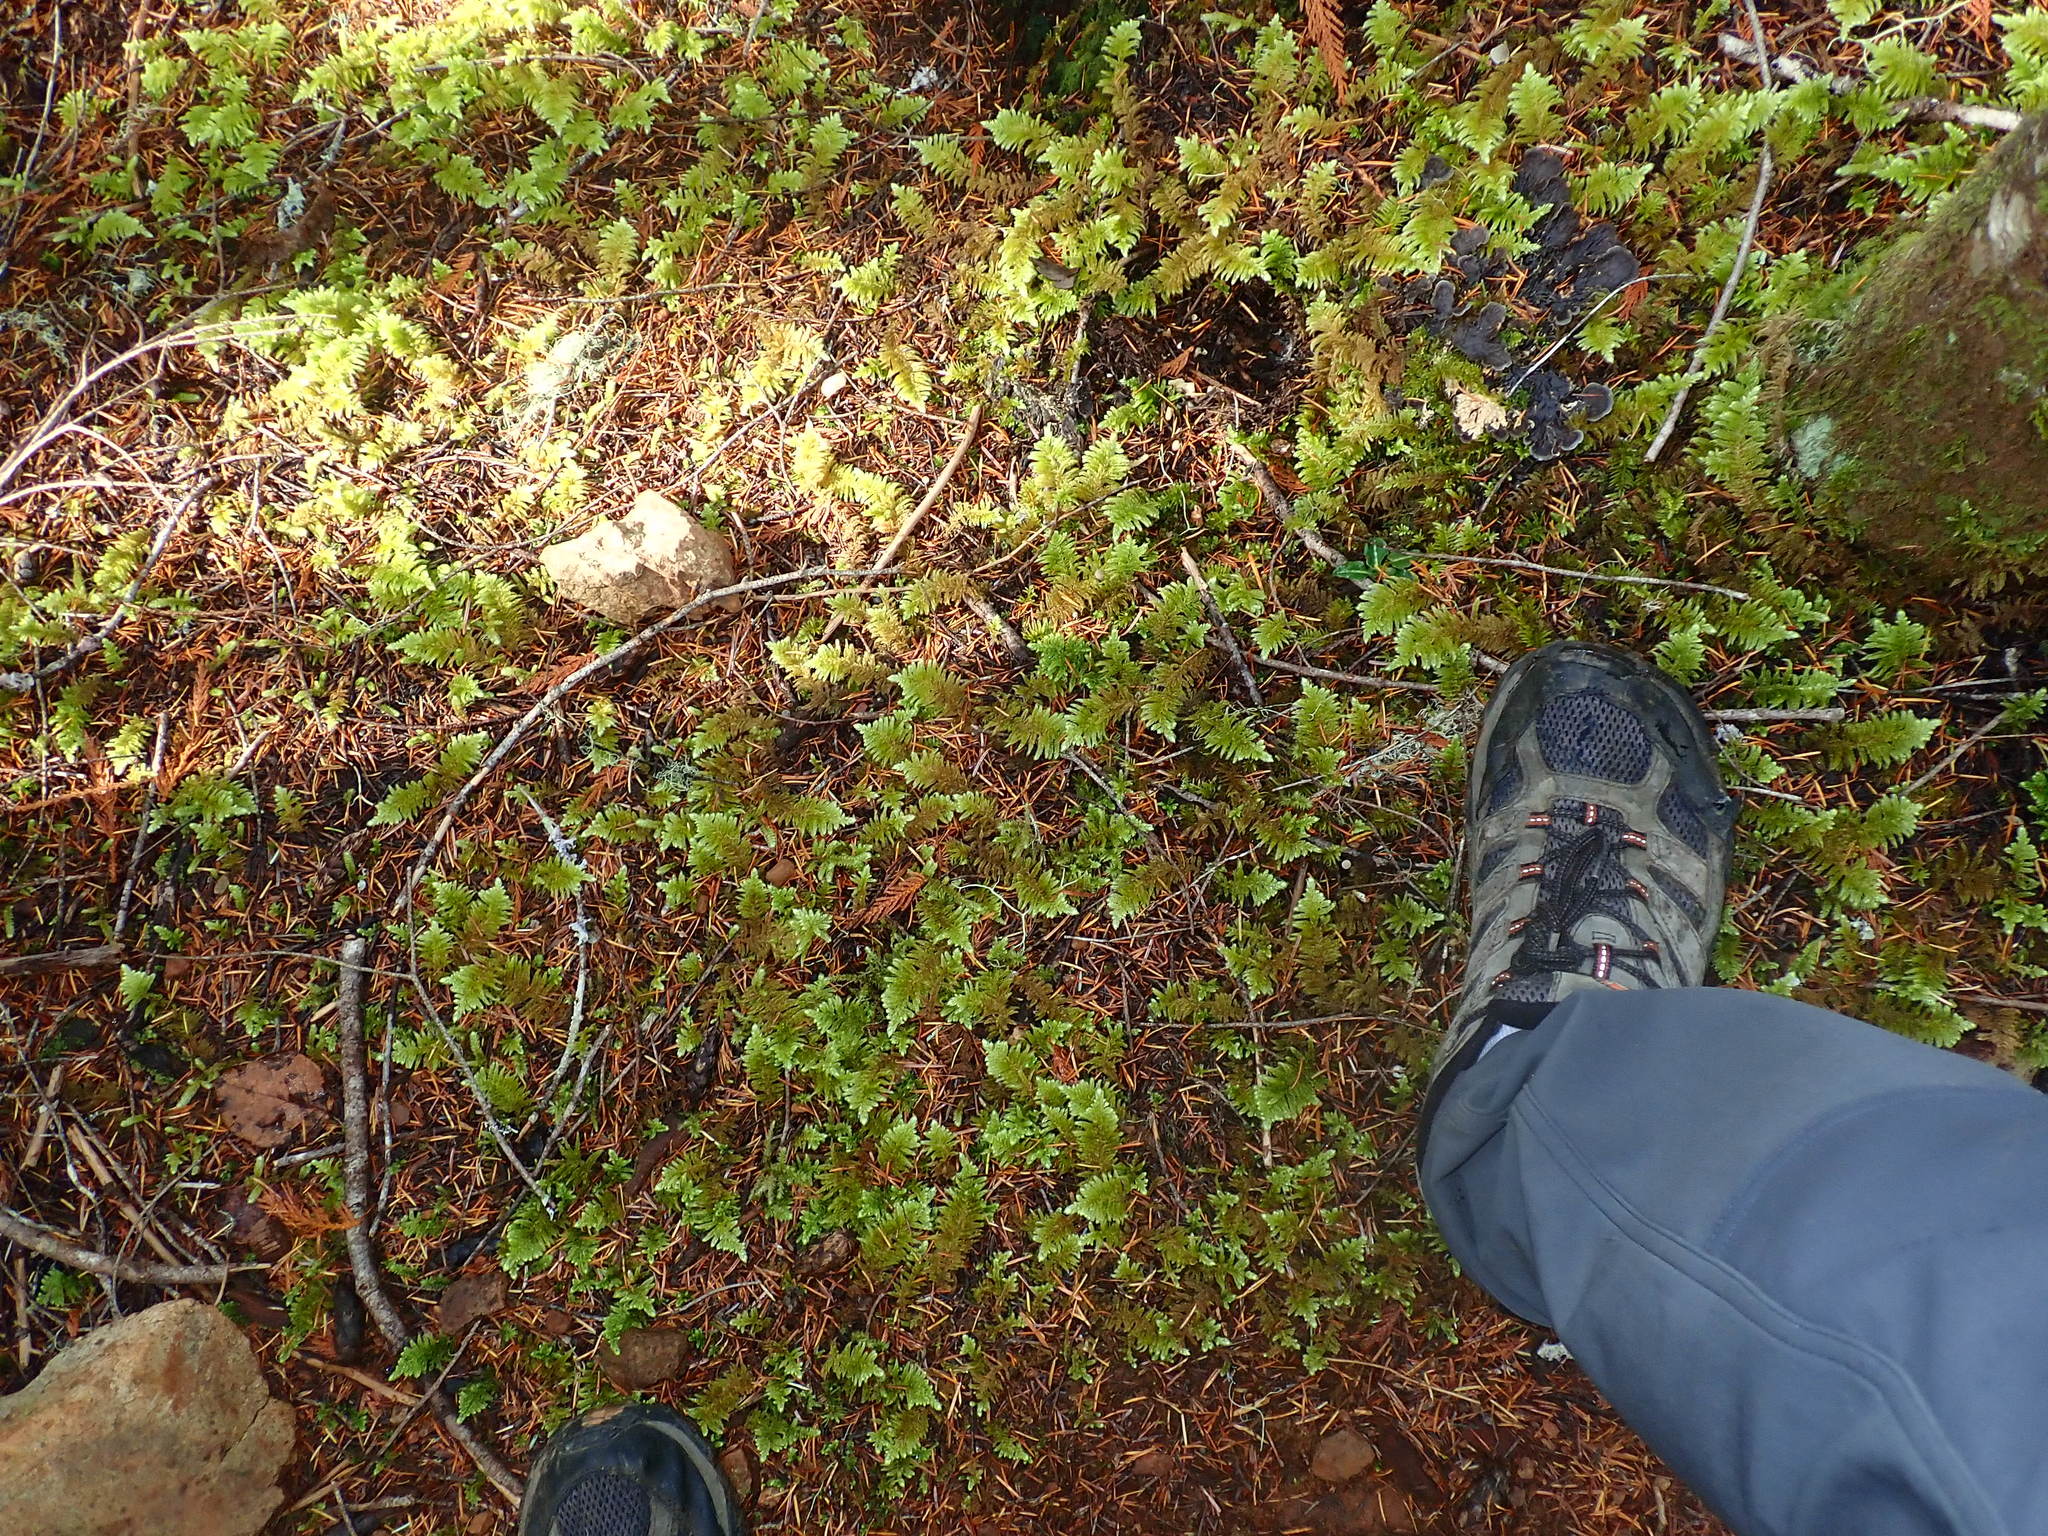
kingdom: Plantae
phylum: Bryophyta
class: Bryopsida
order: Hypnales
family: Brachytheciaceae
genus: Homalothecium
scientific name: Homalothecium megaptilum
